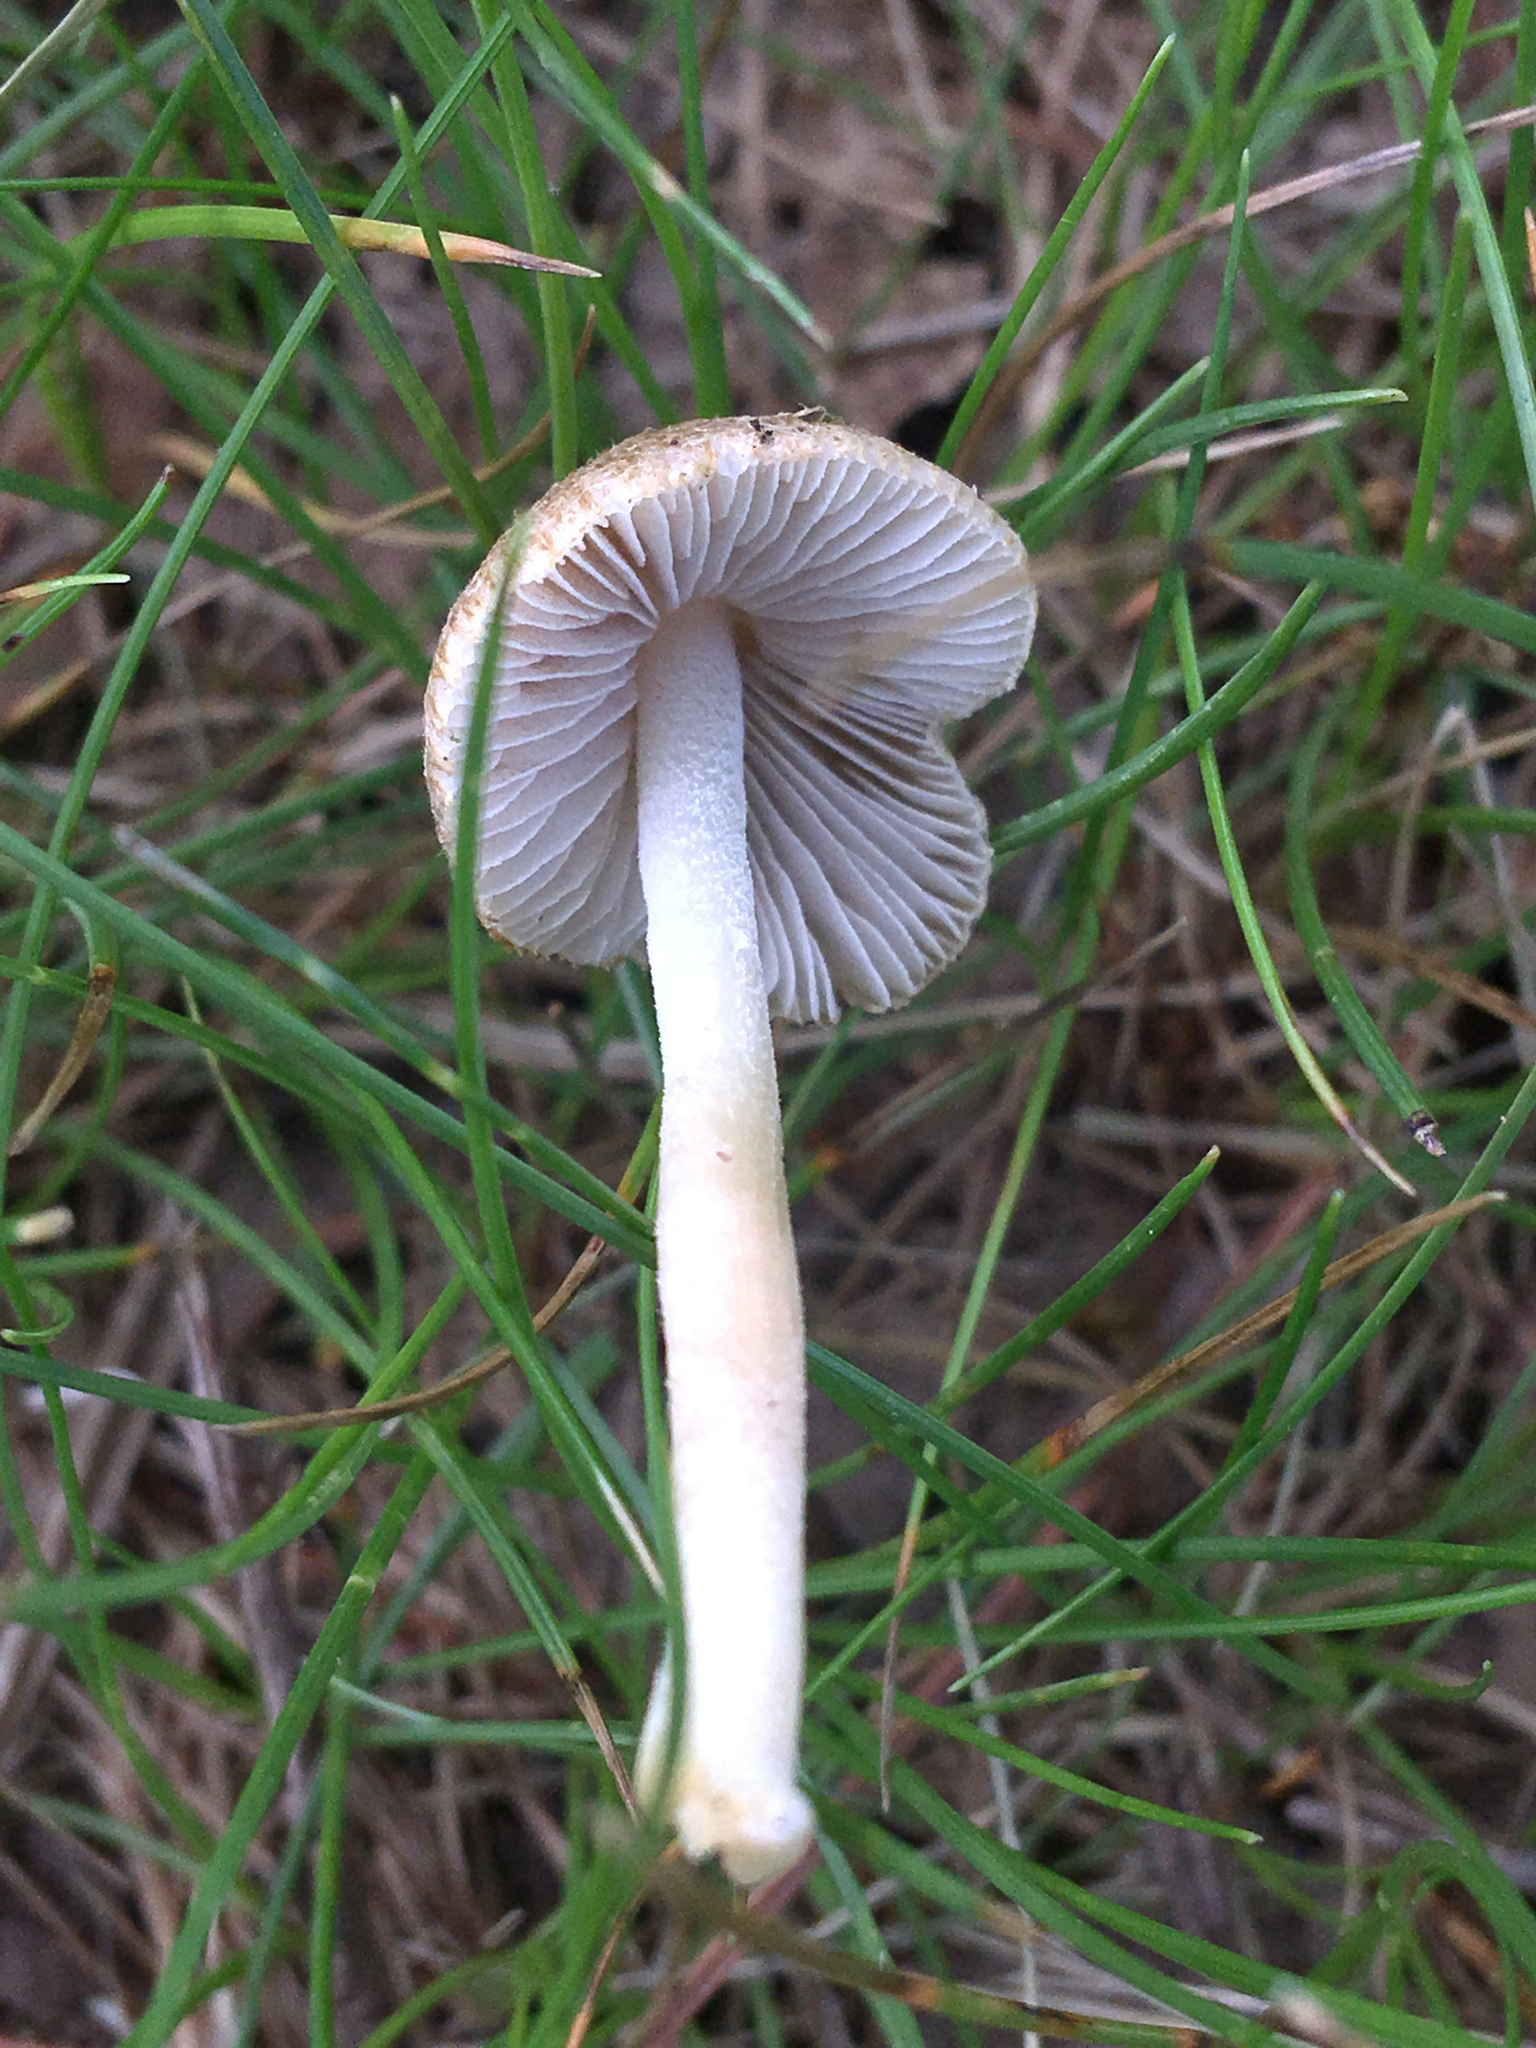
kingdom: Fungi
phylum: Basidiomycota
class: Agaricomycetes
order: Agaricales
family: Inocybaceae
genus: Inocybe
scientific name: Inocybe margaritispora
